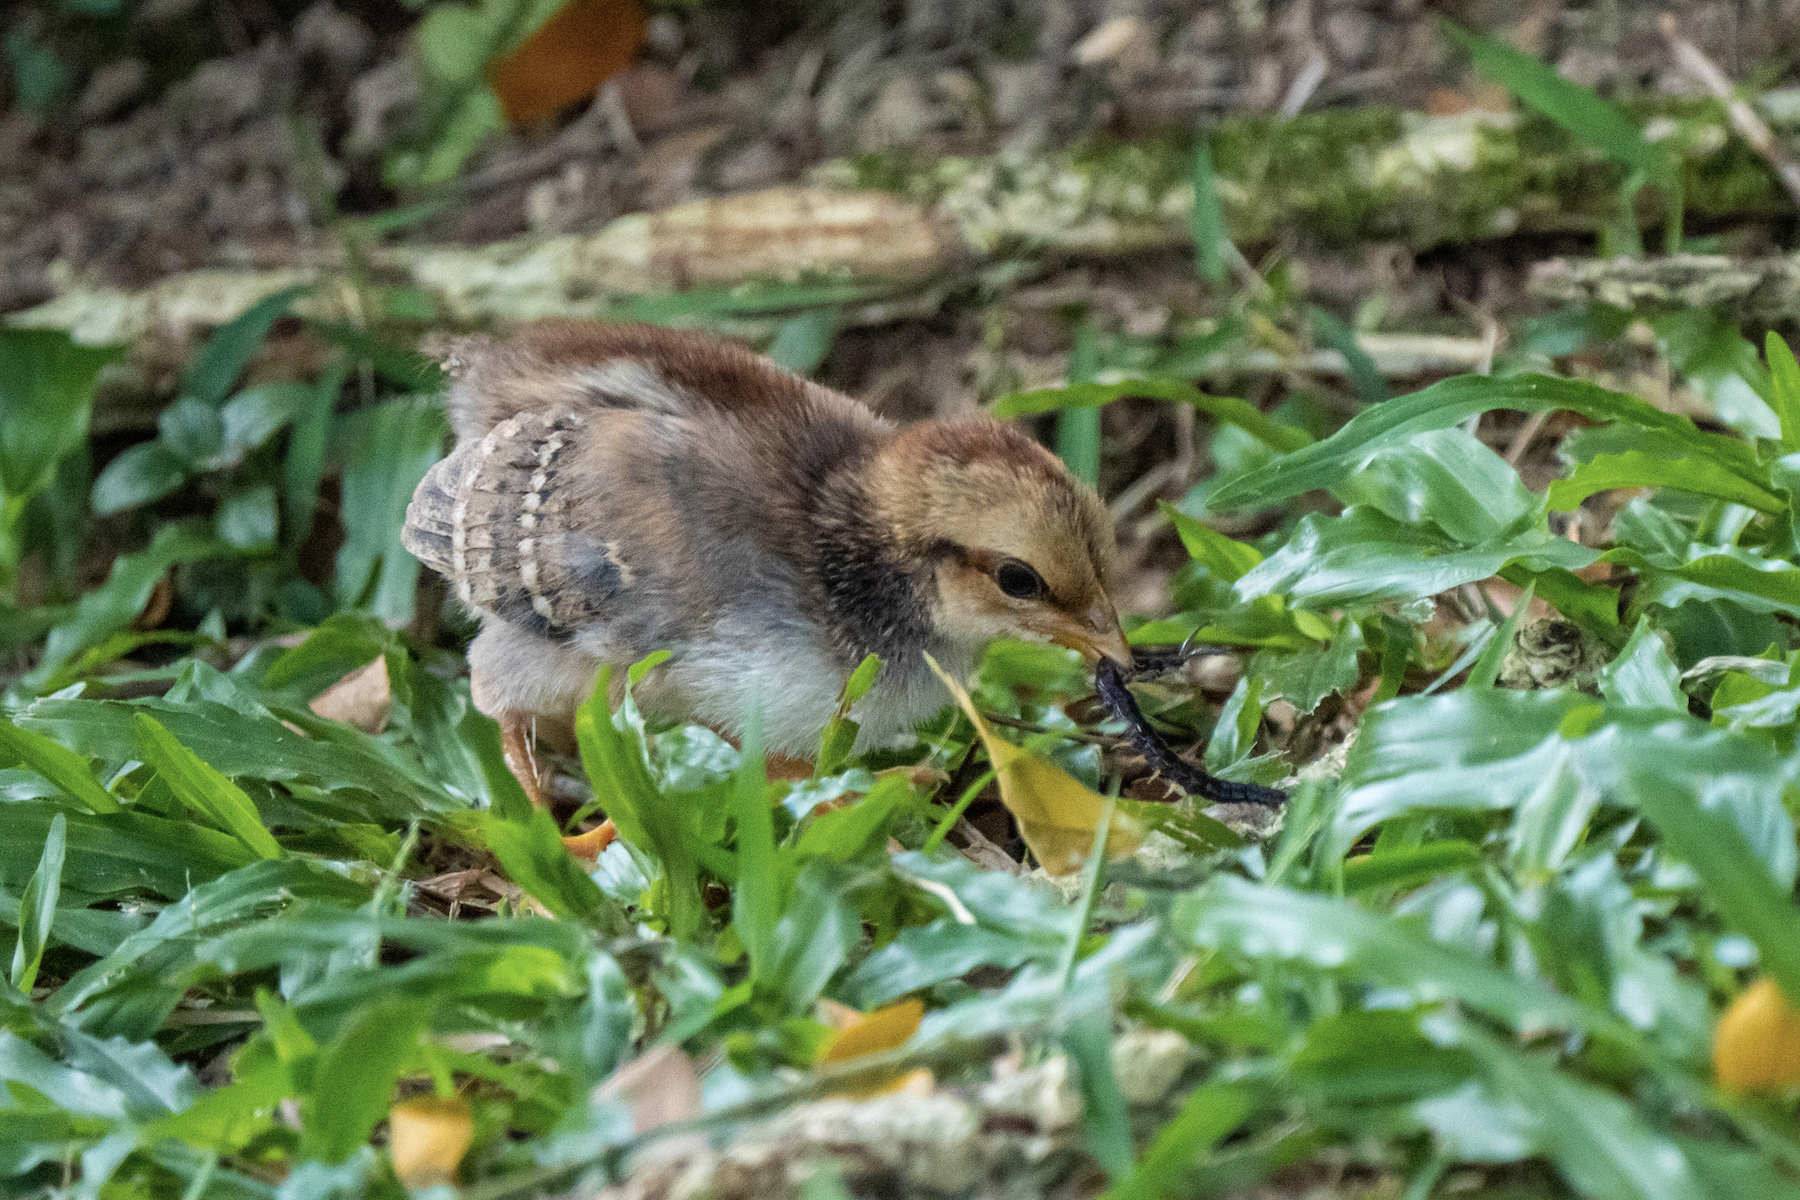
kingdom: Animalia
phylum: Chordata
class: Aves
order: Galliformes
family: Phasianidae
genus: Gallus
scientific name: Gallus gallus
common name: Red junglefowl
